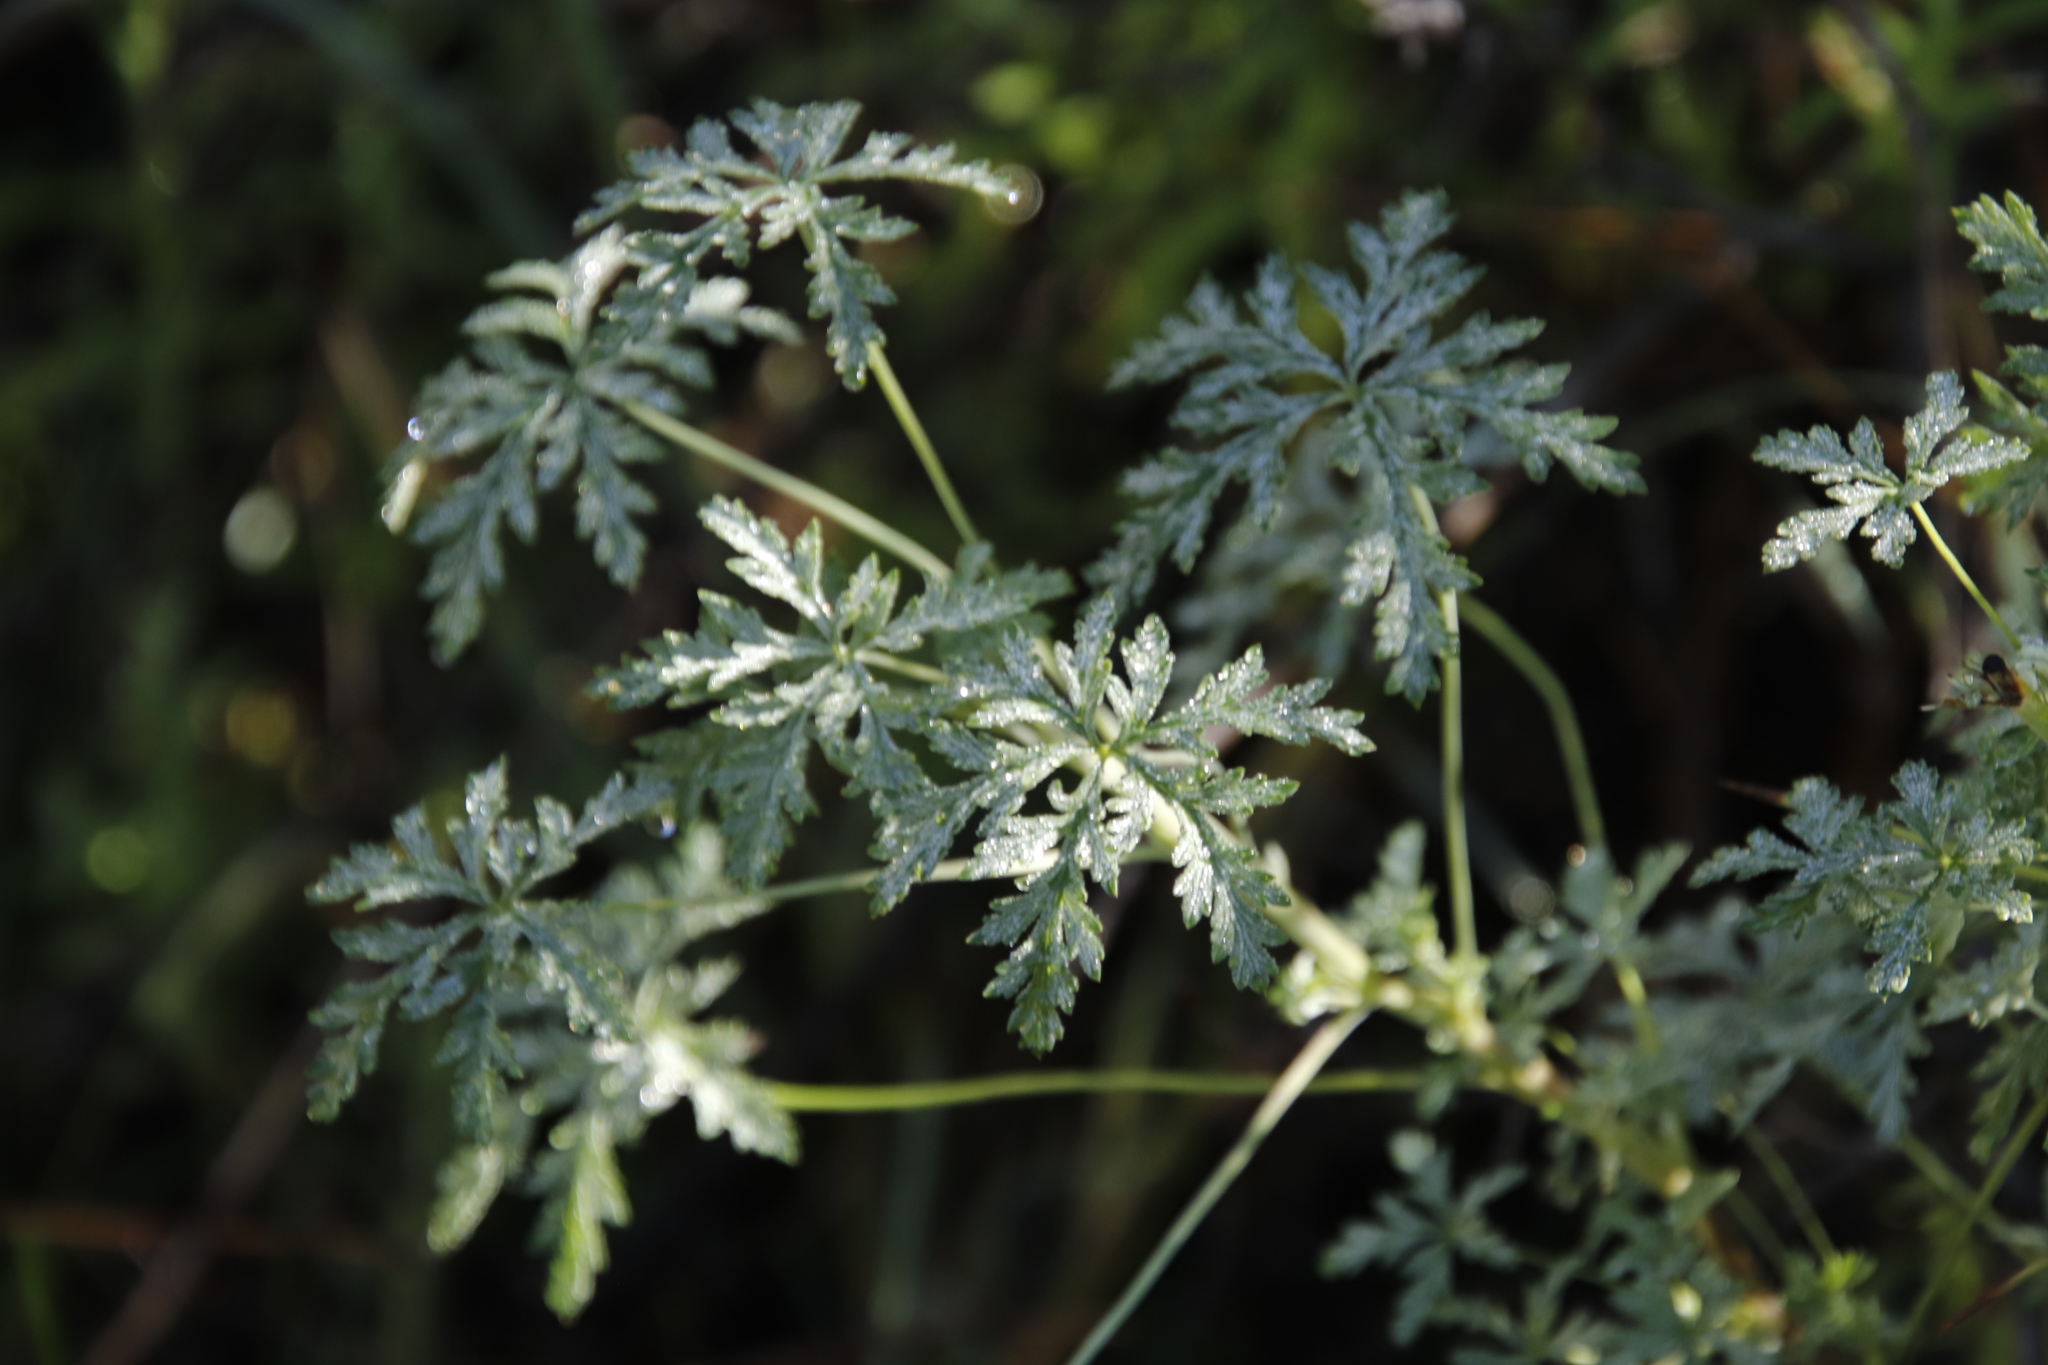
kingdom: Plantae
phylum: Tracheophyta
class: Magnoliopsida
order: Geraniales
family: Geraniaceae
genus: Geranium
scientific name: Geranium robustum
